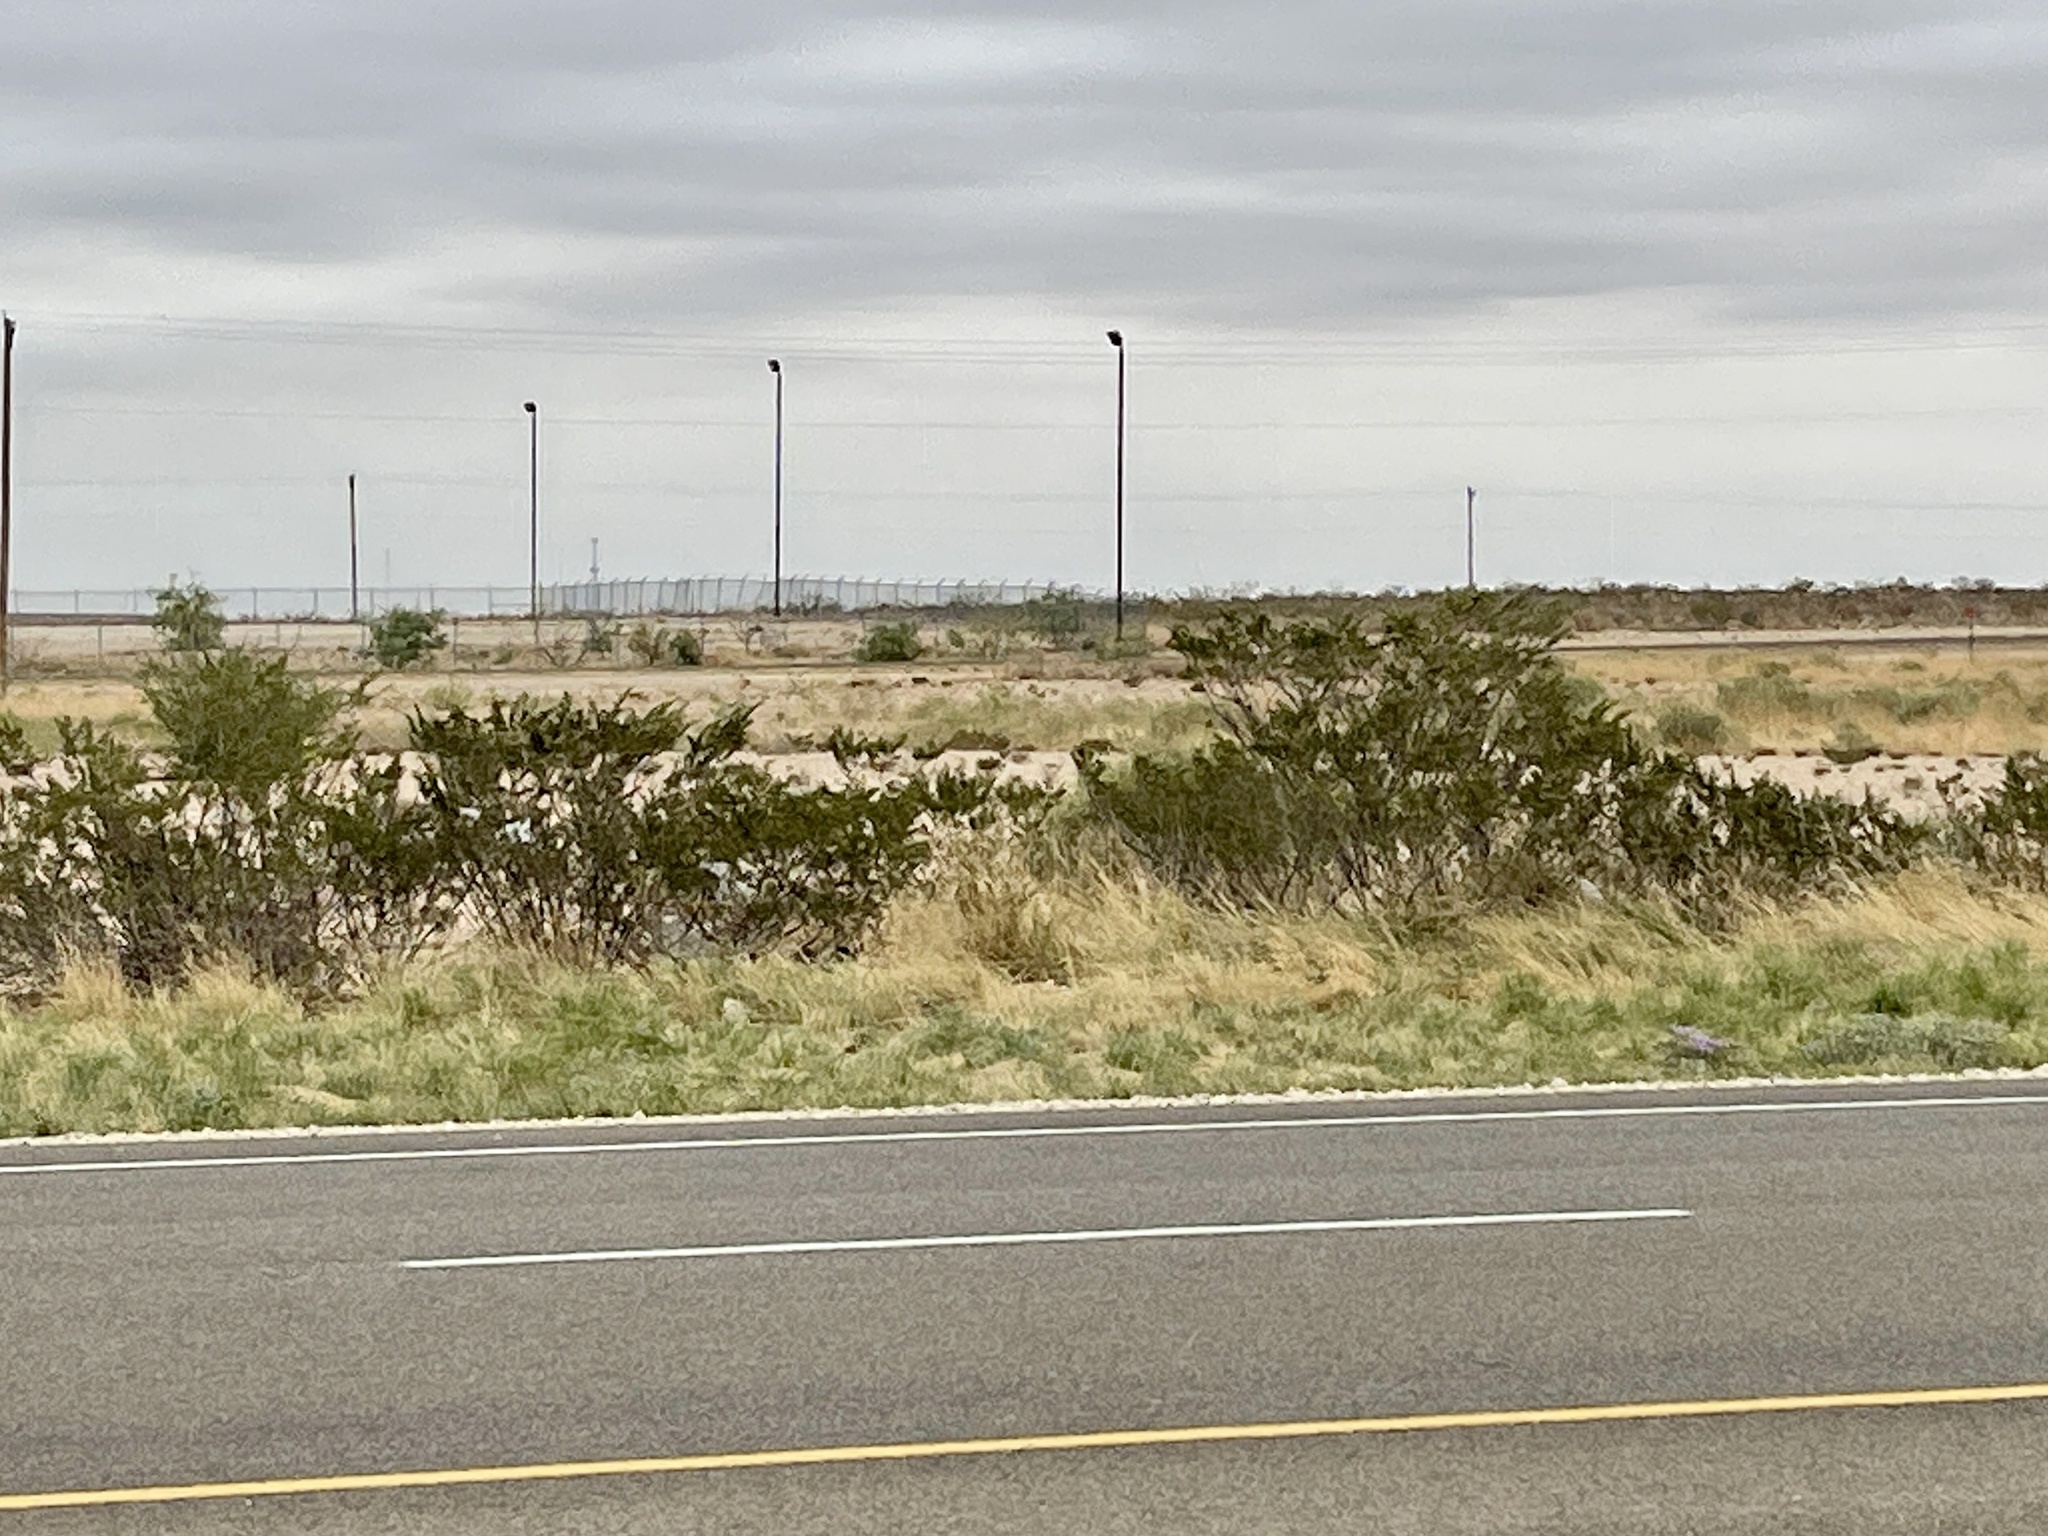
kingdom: Plantae
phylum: Tracheophyta
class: Magnoliopsida
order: Zygophyllales
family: Zygophyllaceae
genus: Larrea
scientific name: Larrea tridentata
